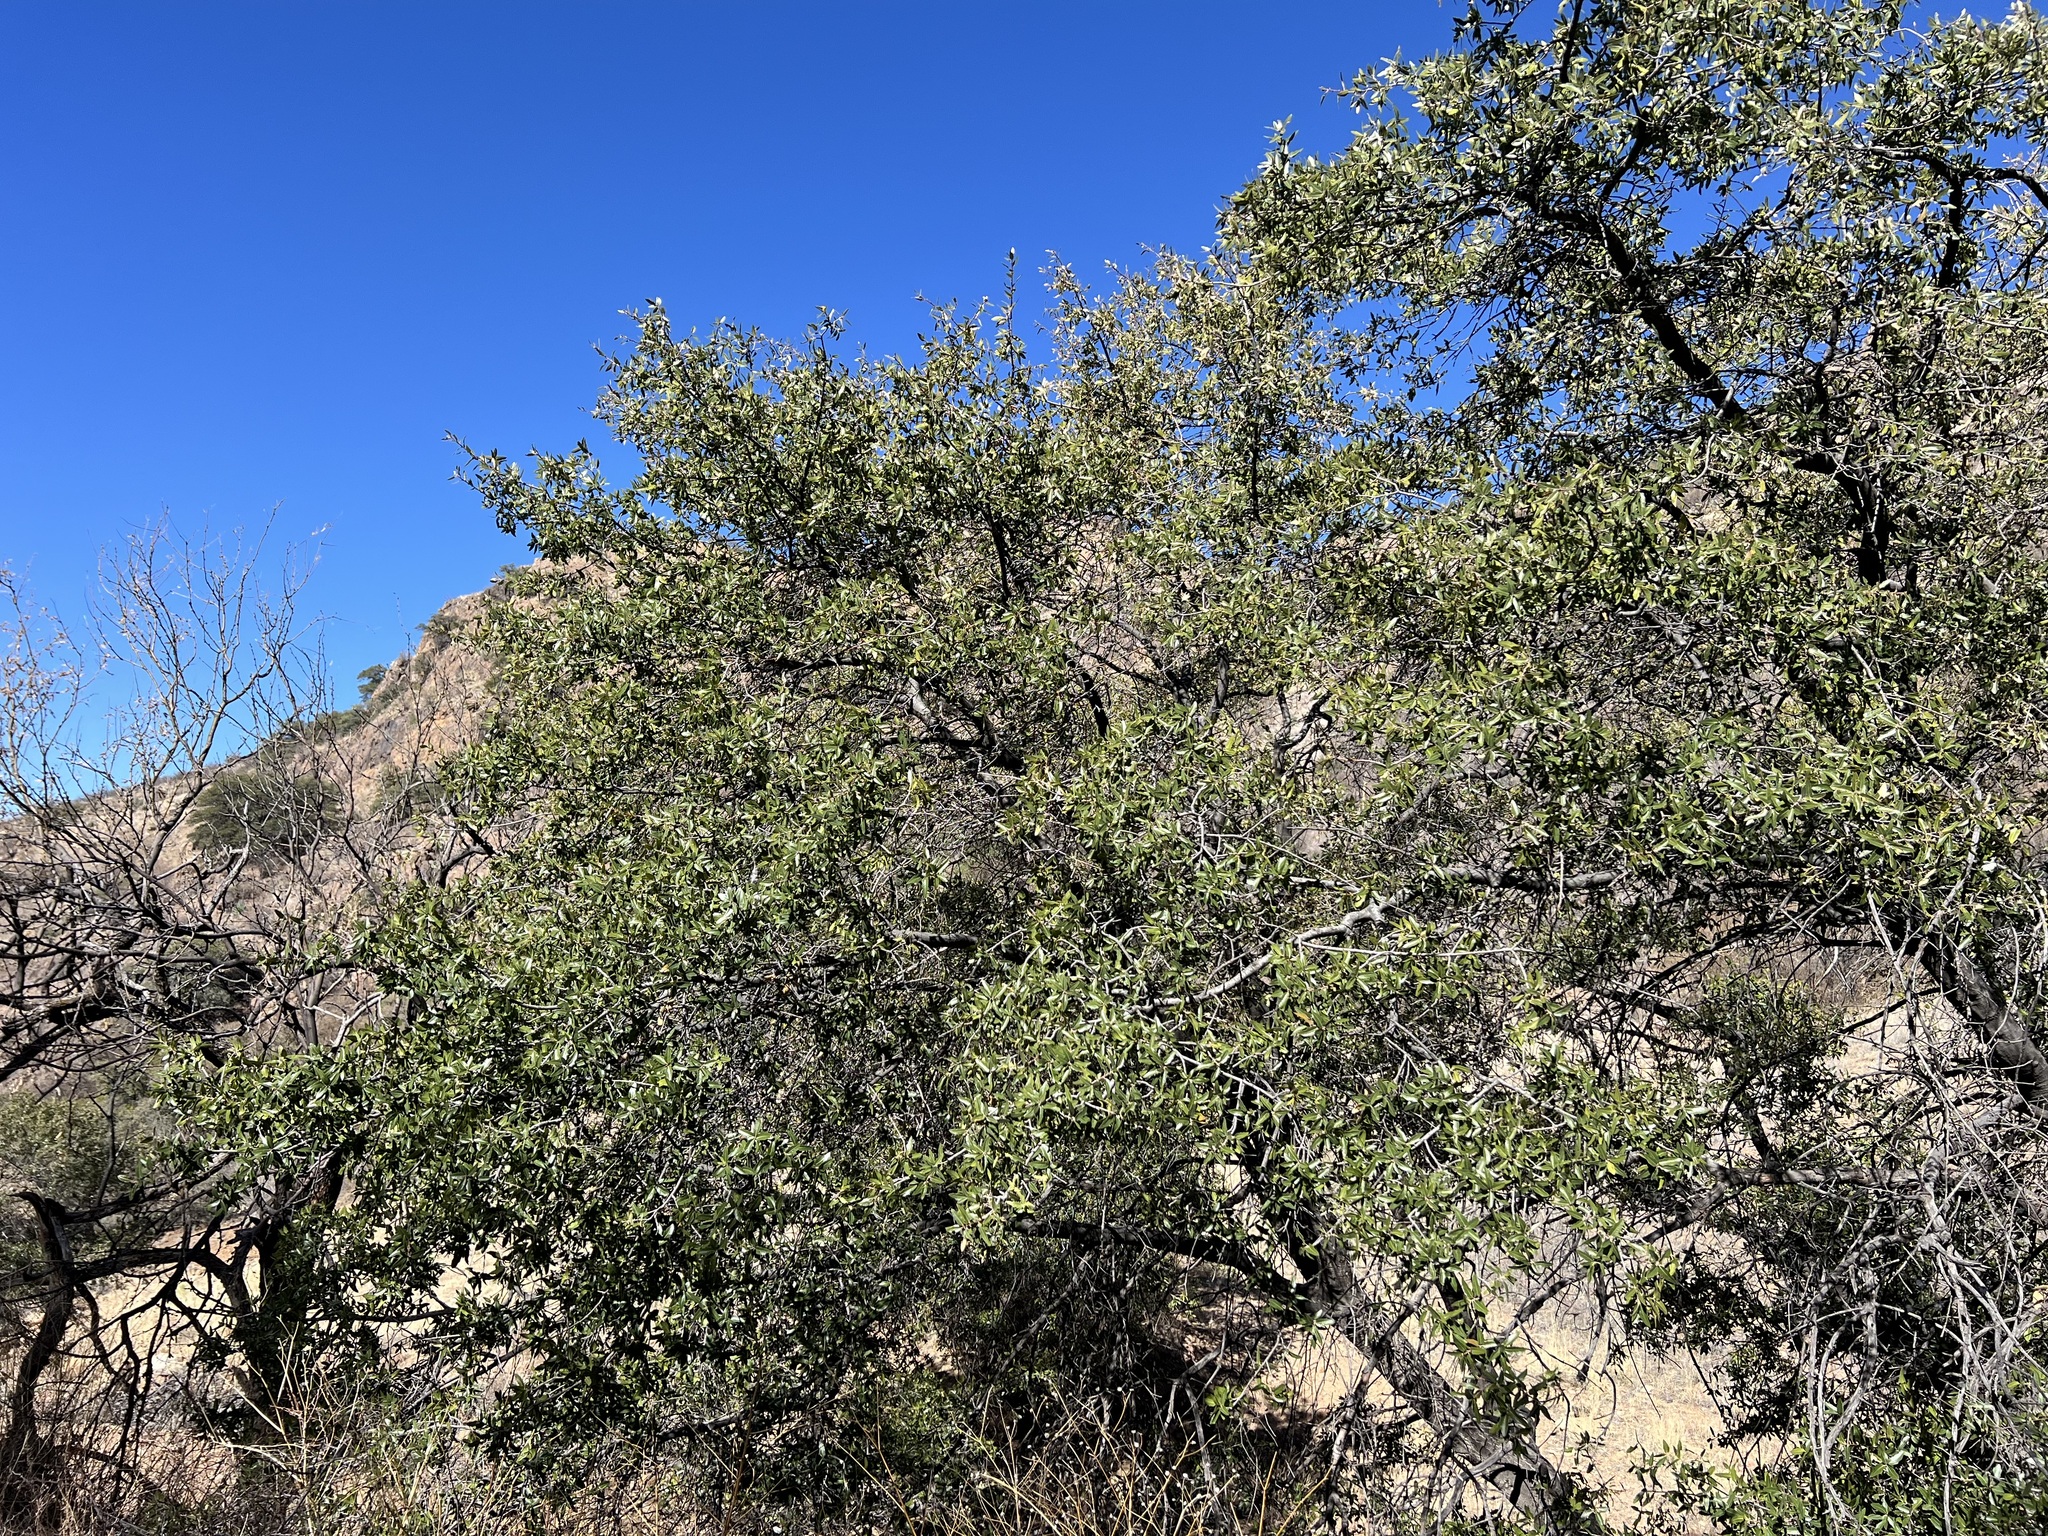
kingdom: Plantae
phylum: Tracheophyta
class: Magnoliopsida
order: Fagales
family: Fagaceae
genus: Quercus
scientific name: Quercus emoryi
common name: Emory oak
